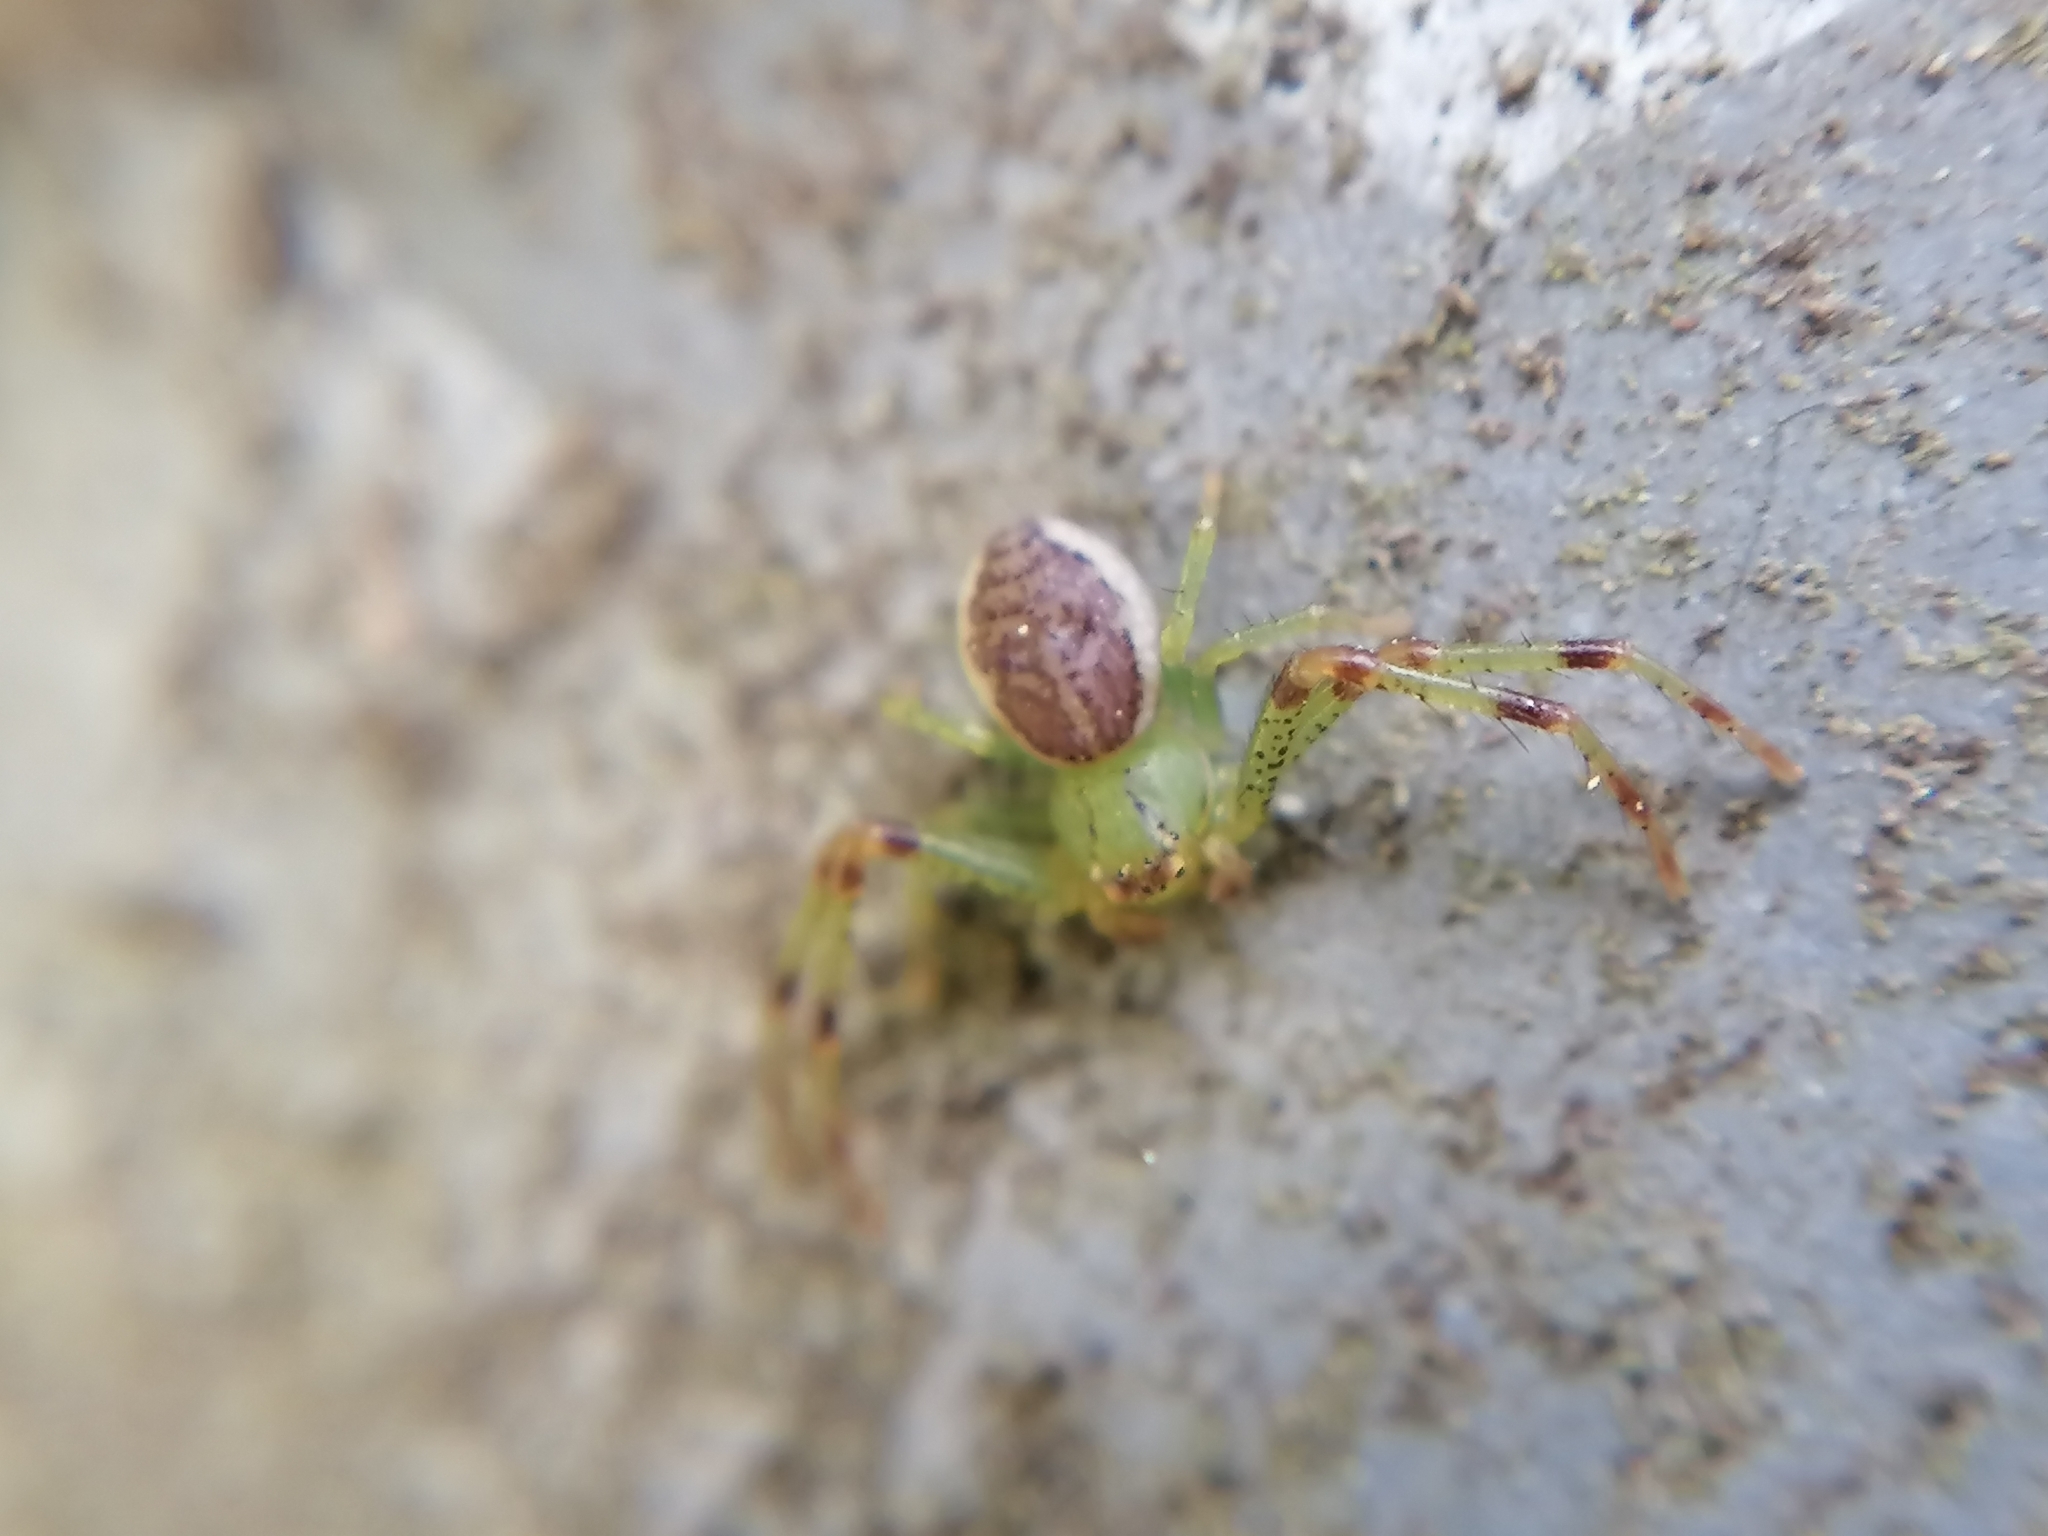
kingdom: Animalia
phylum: Arthropoda
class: Arachnida
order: Araneae
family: Thomisidae
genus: Diaea
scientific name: Diaea dorsata
